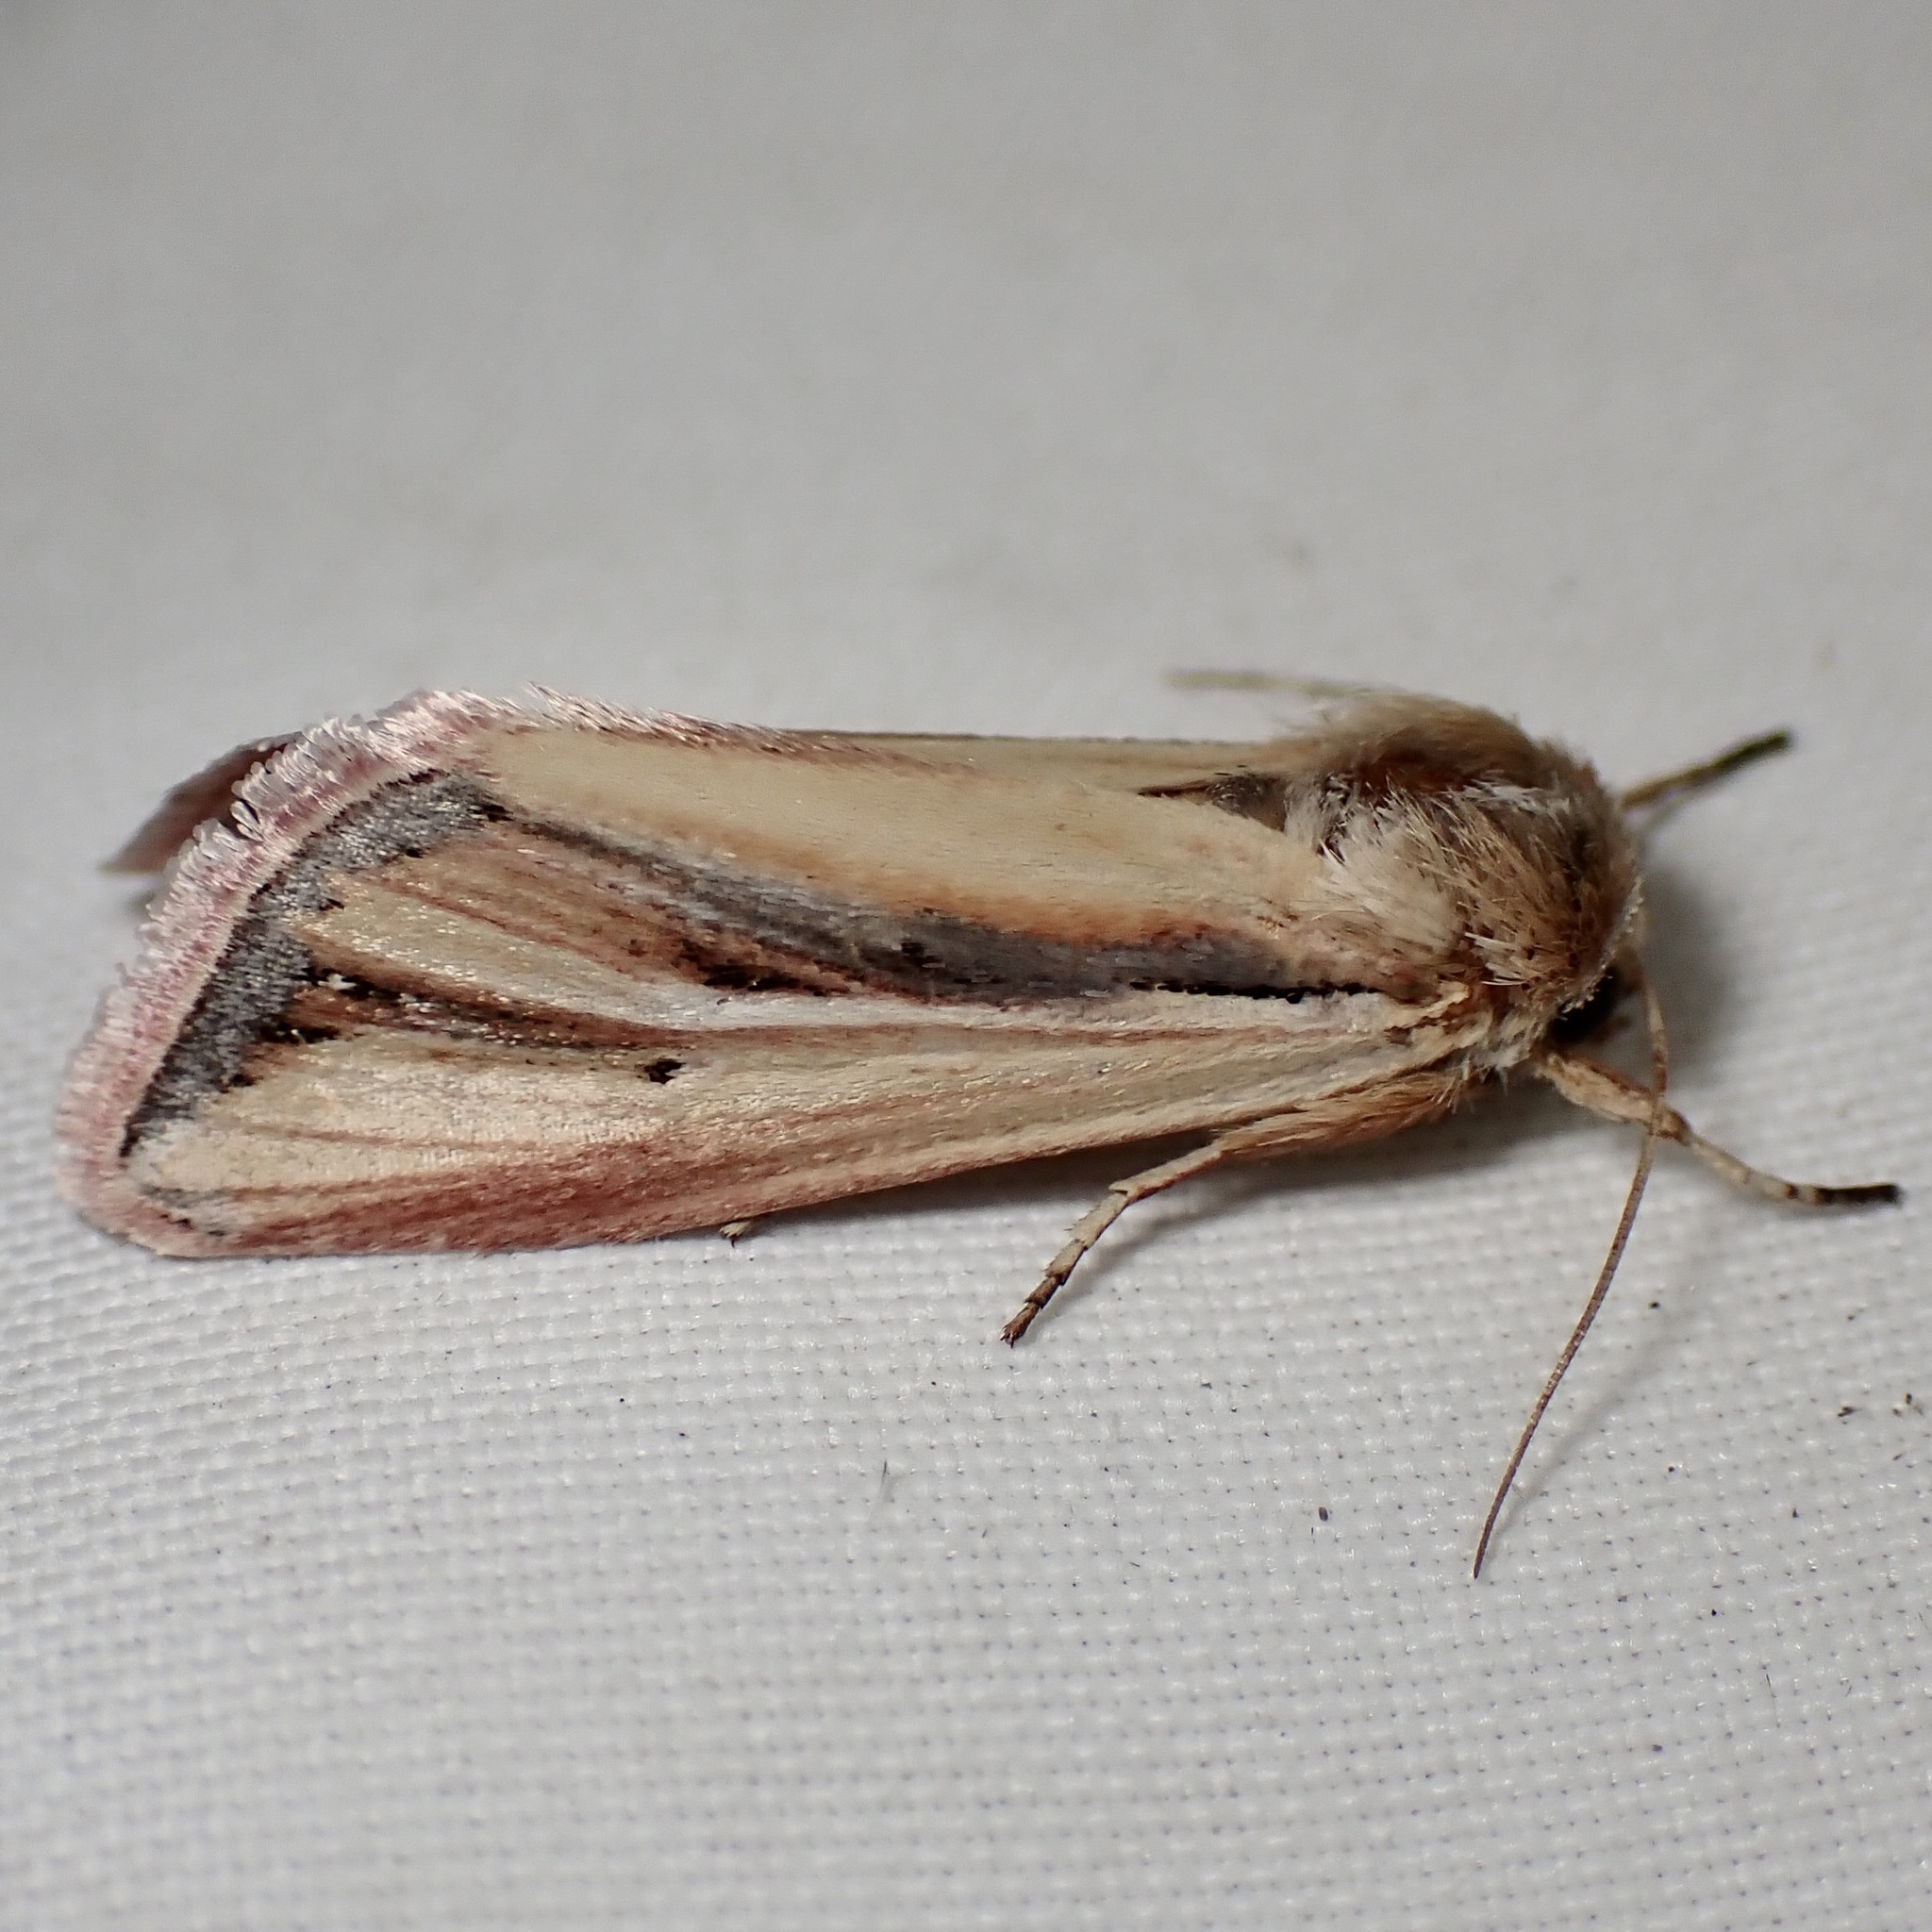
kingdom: Animalia
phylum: Arthropoda
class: Insecta
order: Lepidoptera
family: Noctuidae
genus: Dargida
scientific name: Dargida tetera
